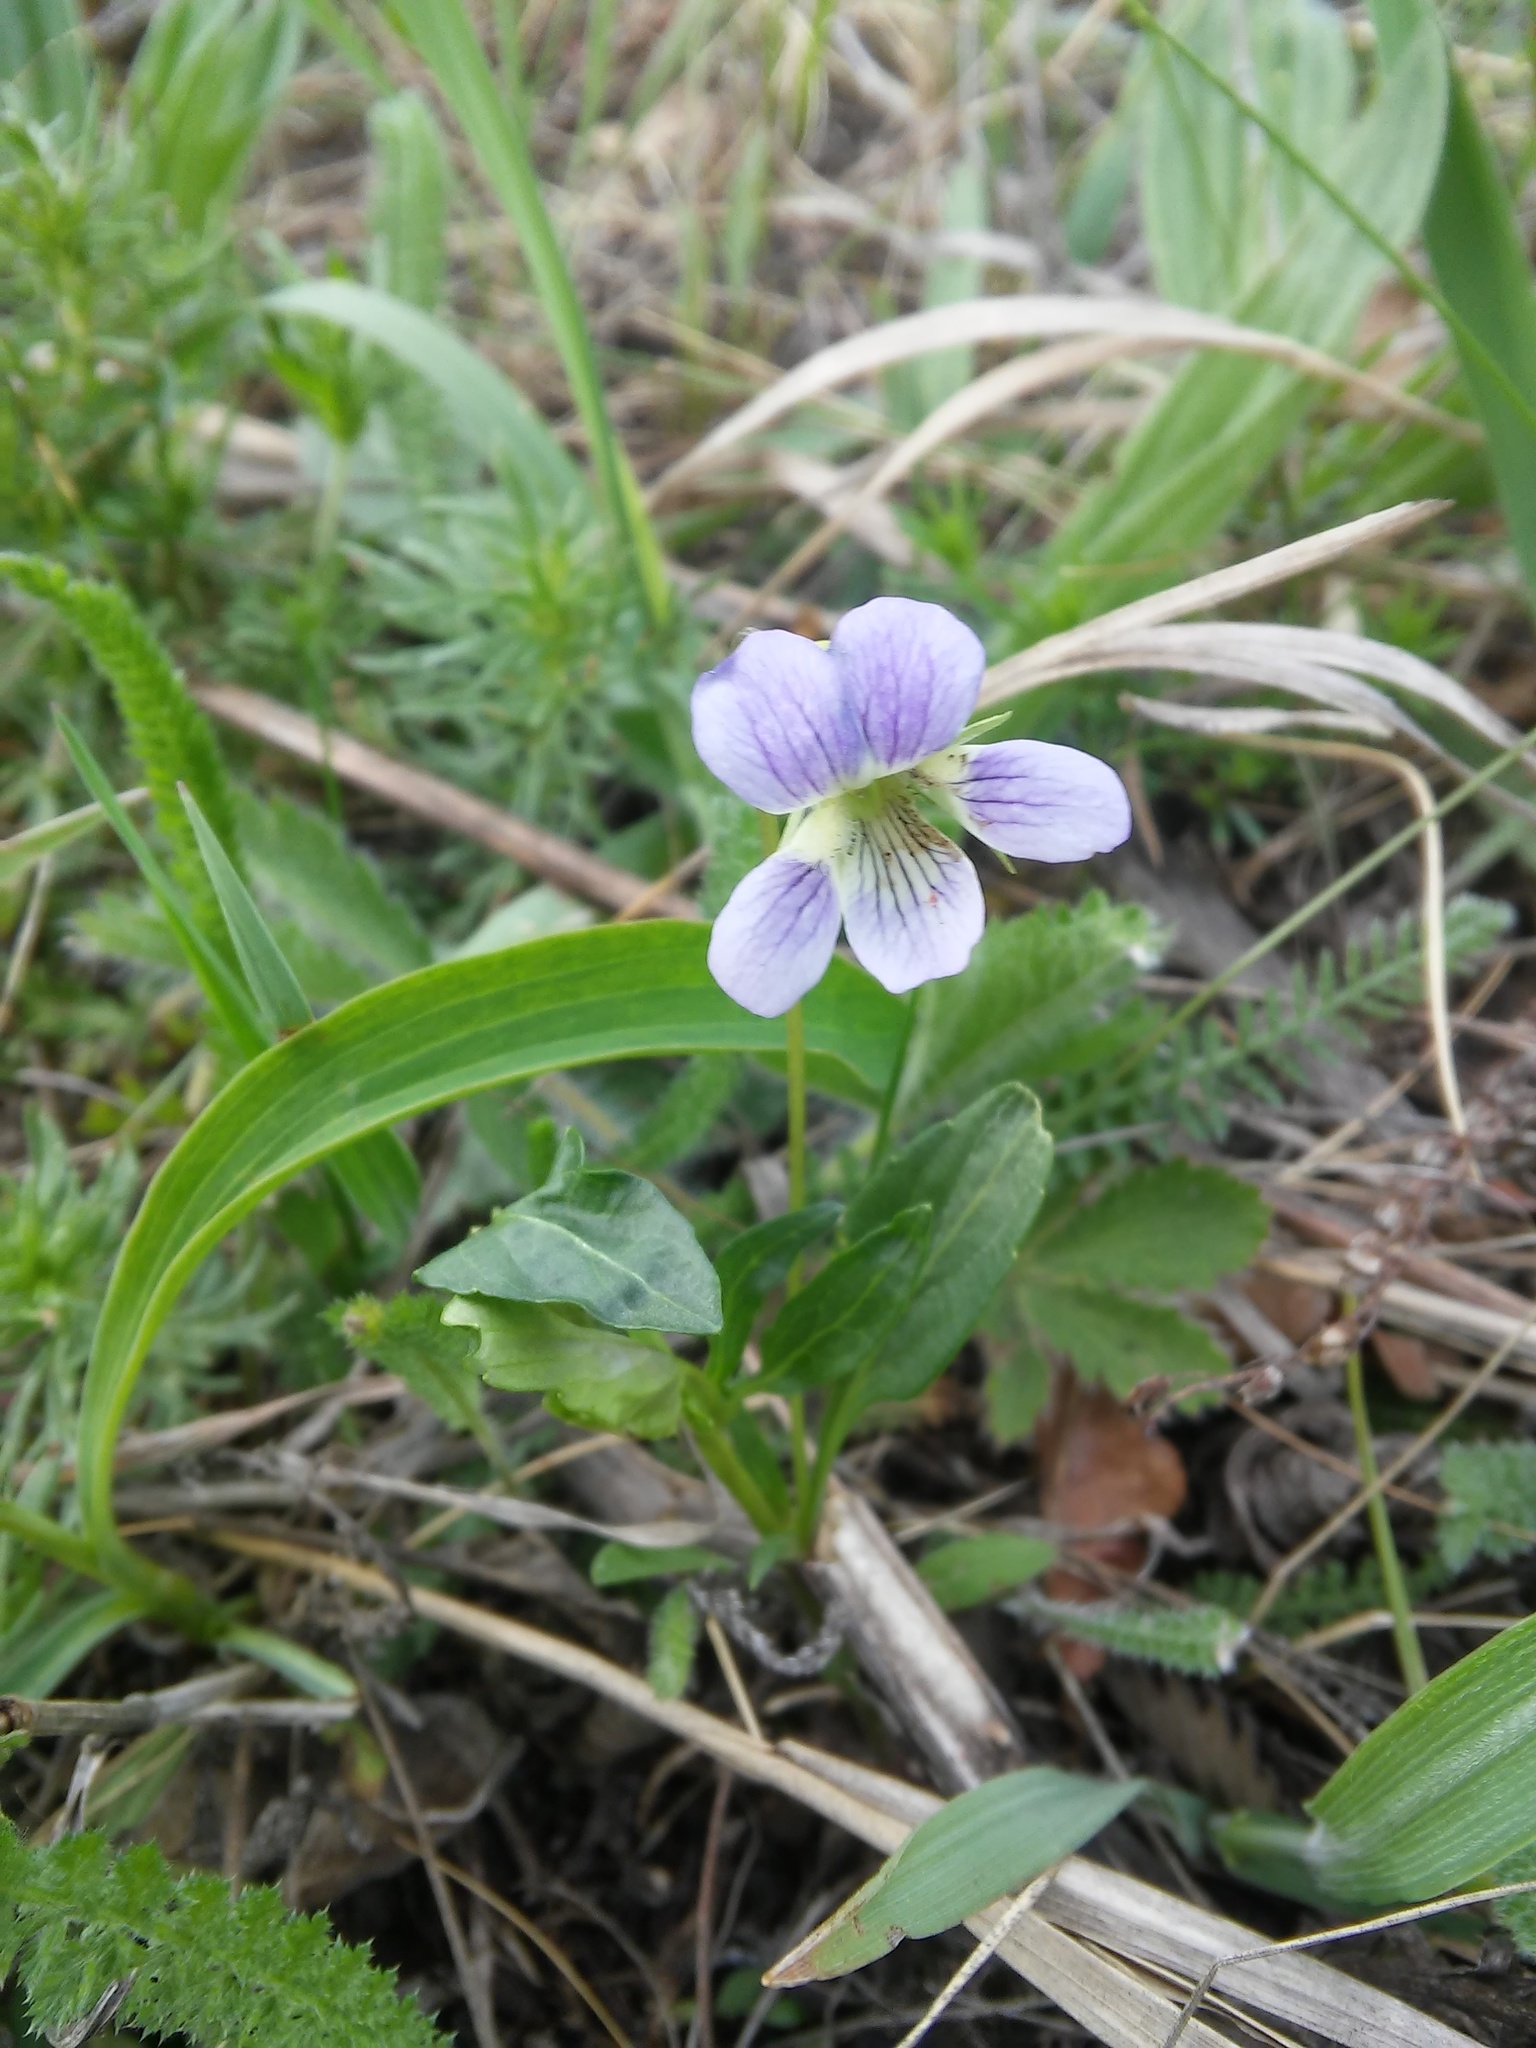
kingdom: Plantae
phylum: Tracheophyta
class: Magnoliopsida
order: Malpighiales
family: Violaceae
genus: Viola
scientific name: Viola pumila
